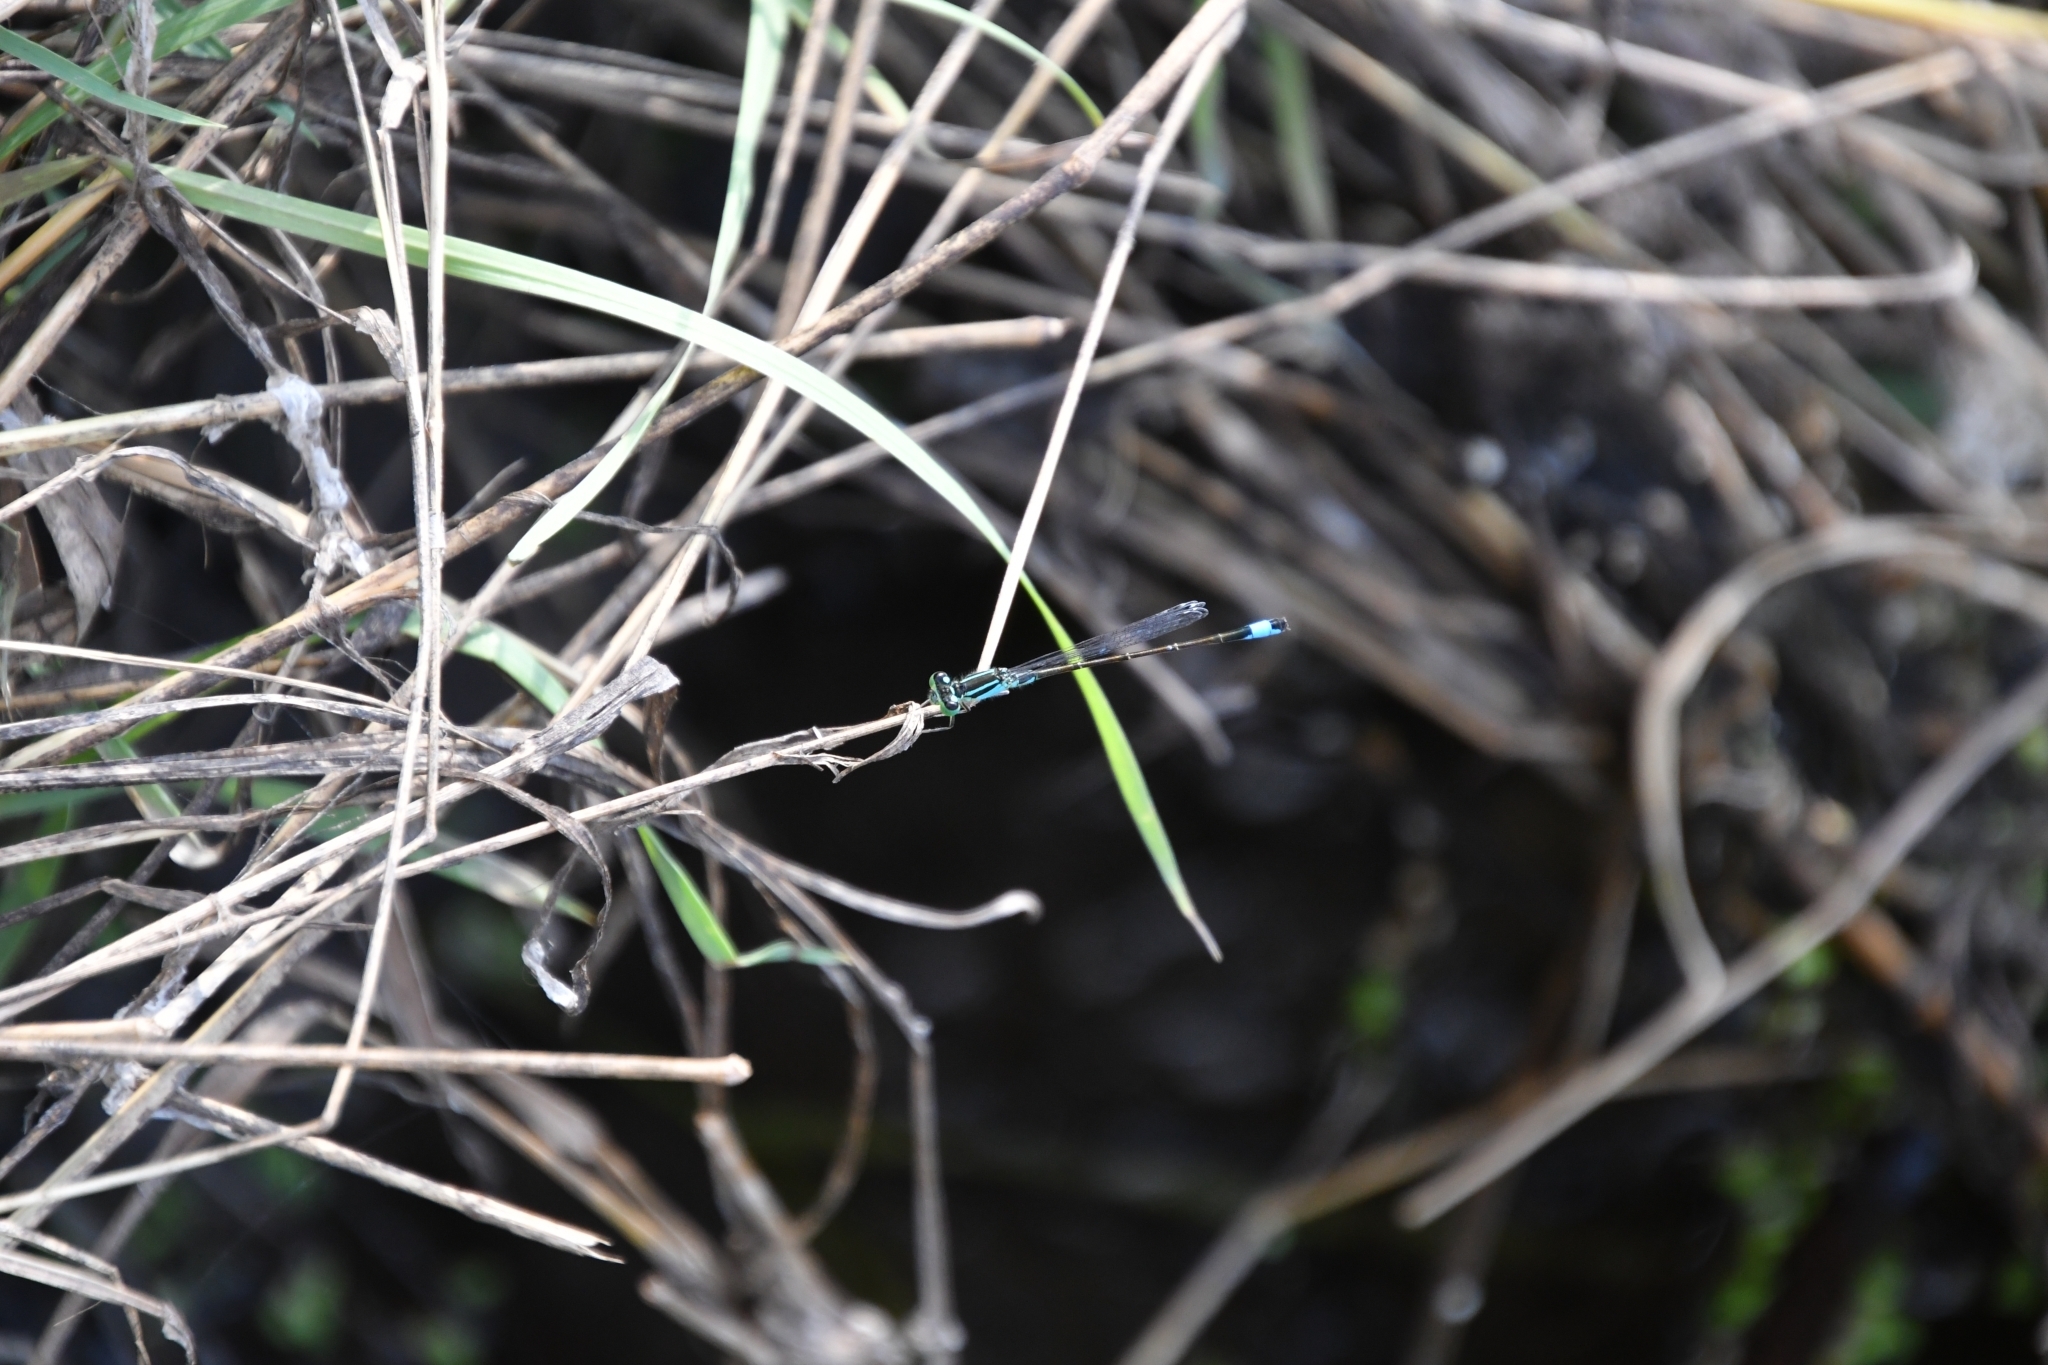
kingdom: Animalia
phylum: Arthropoda
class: Insecta
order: Odonata
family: Coenagrionidae
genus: Ischnura
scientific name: Ischnura elegans
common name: Blue-tailed damselfly
